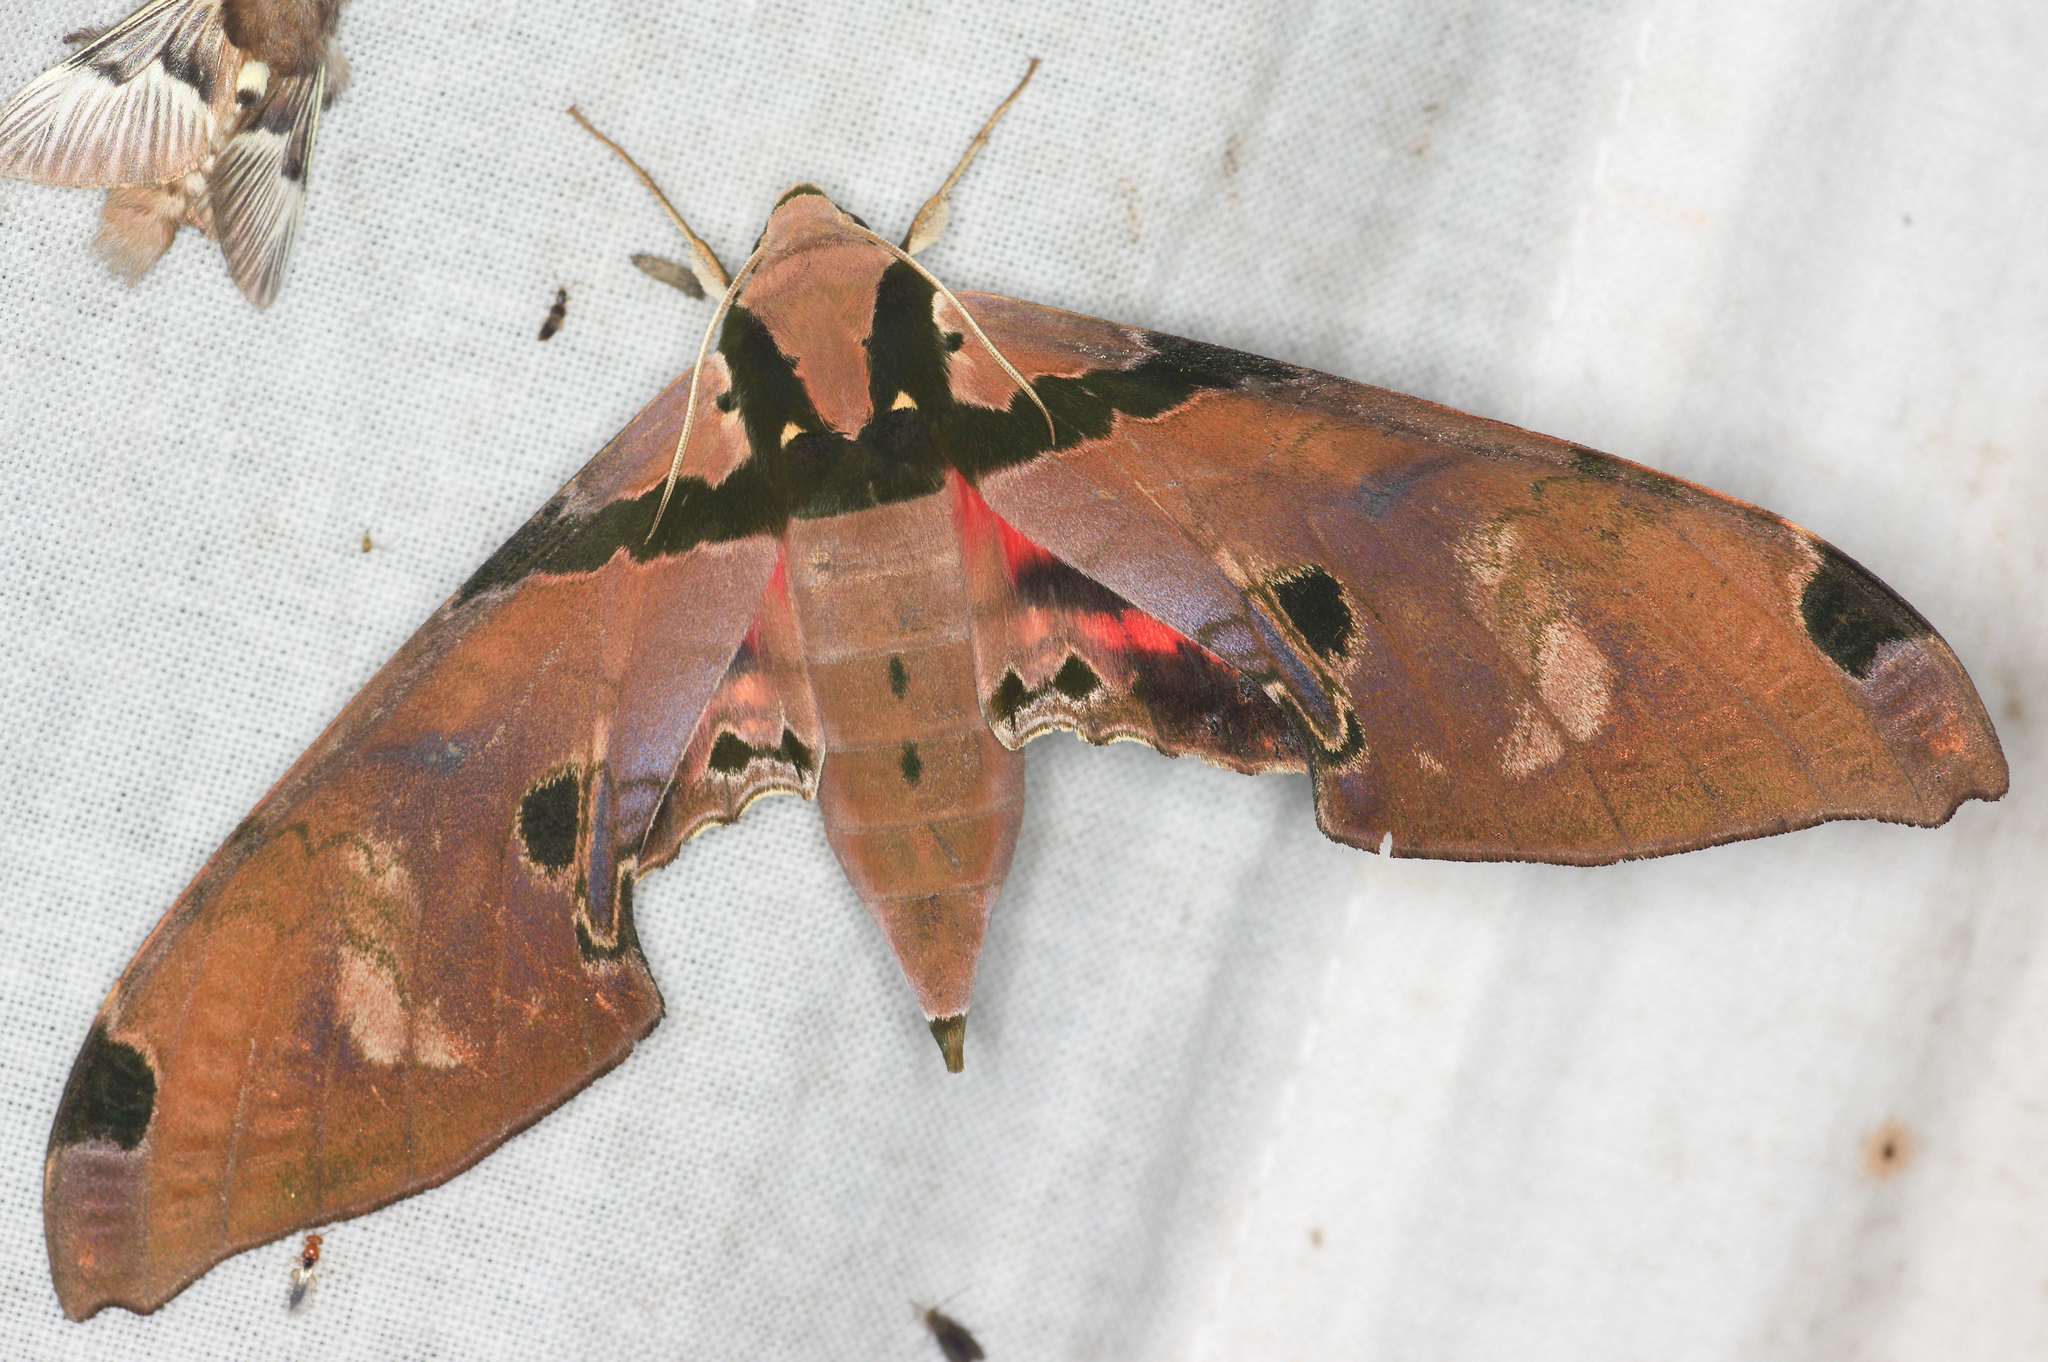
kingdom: Animalia
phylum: Arthropoda
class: Insecta
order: Lepidoptera
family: Sphingidae
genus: Adhemarius
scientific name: Adhemarius gagarini
